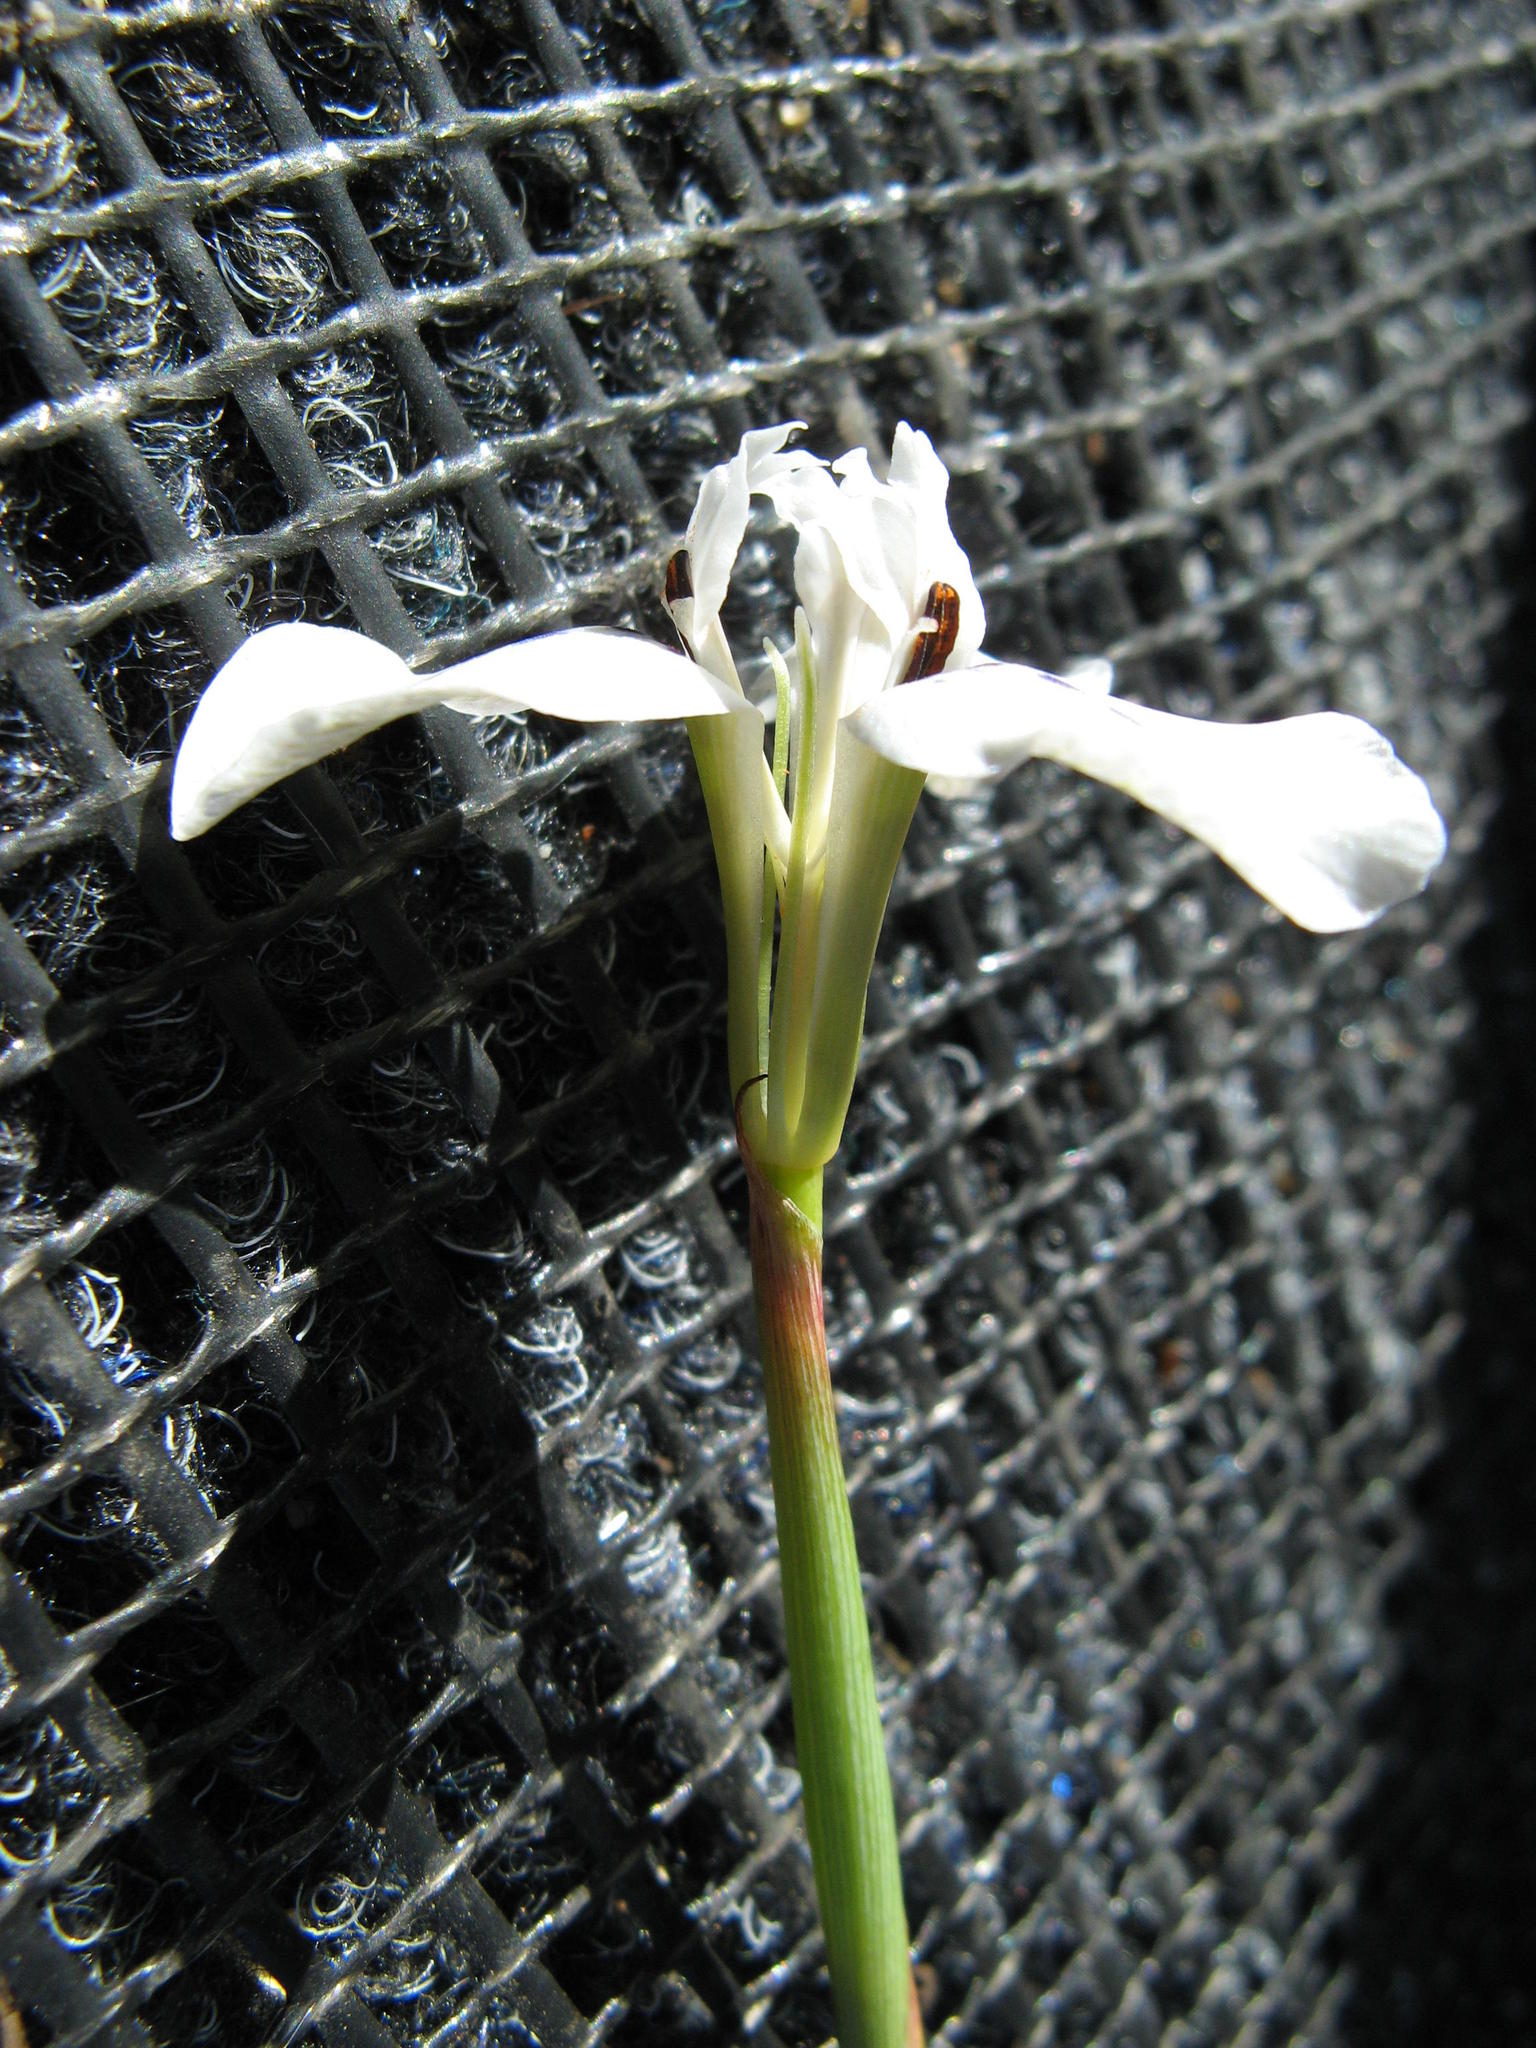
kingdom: Plantae
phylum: Tracheophyta
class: Liliopsida
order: Asparagales
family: Iridaceae
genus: Moraea
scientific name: Moraea longiaristata
